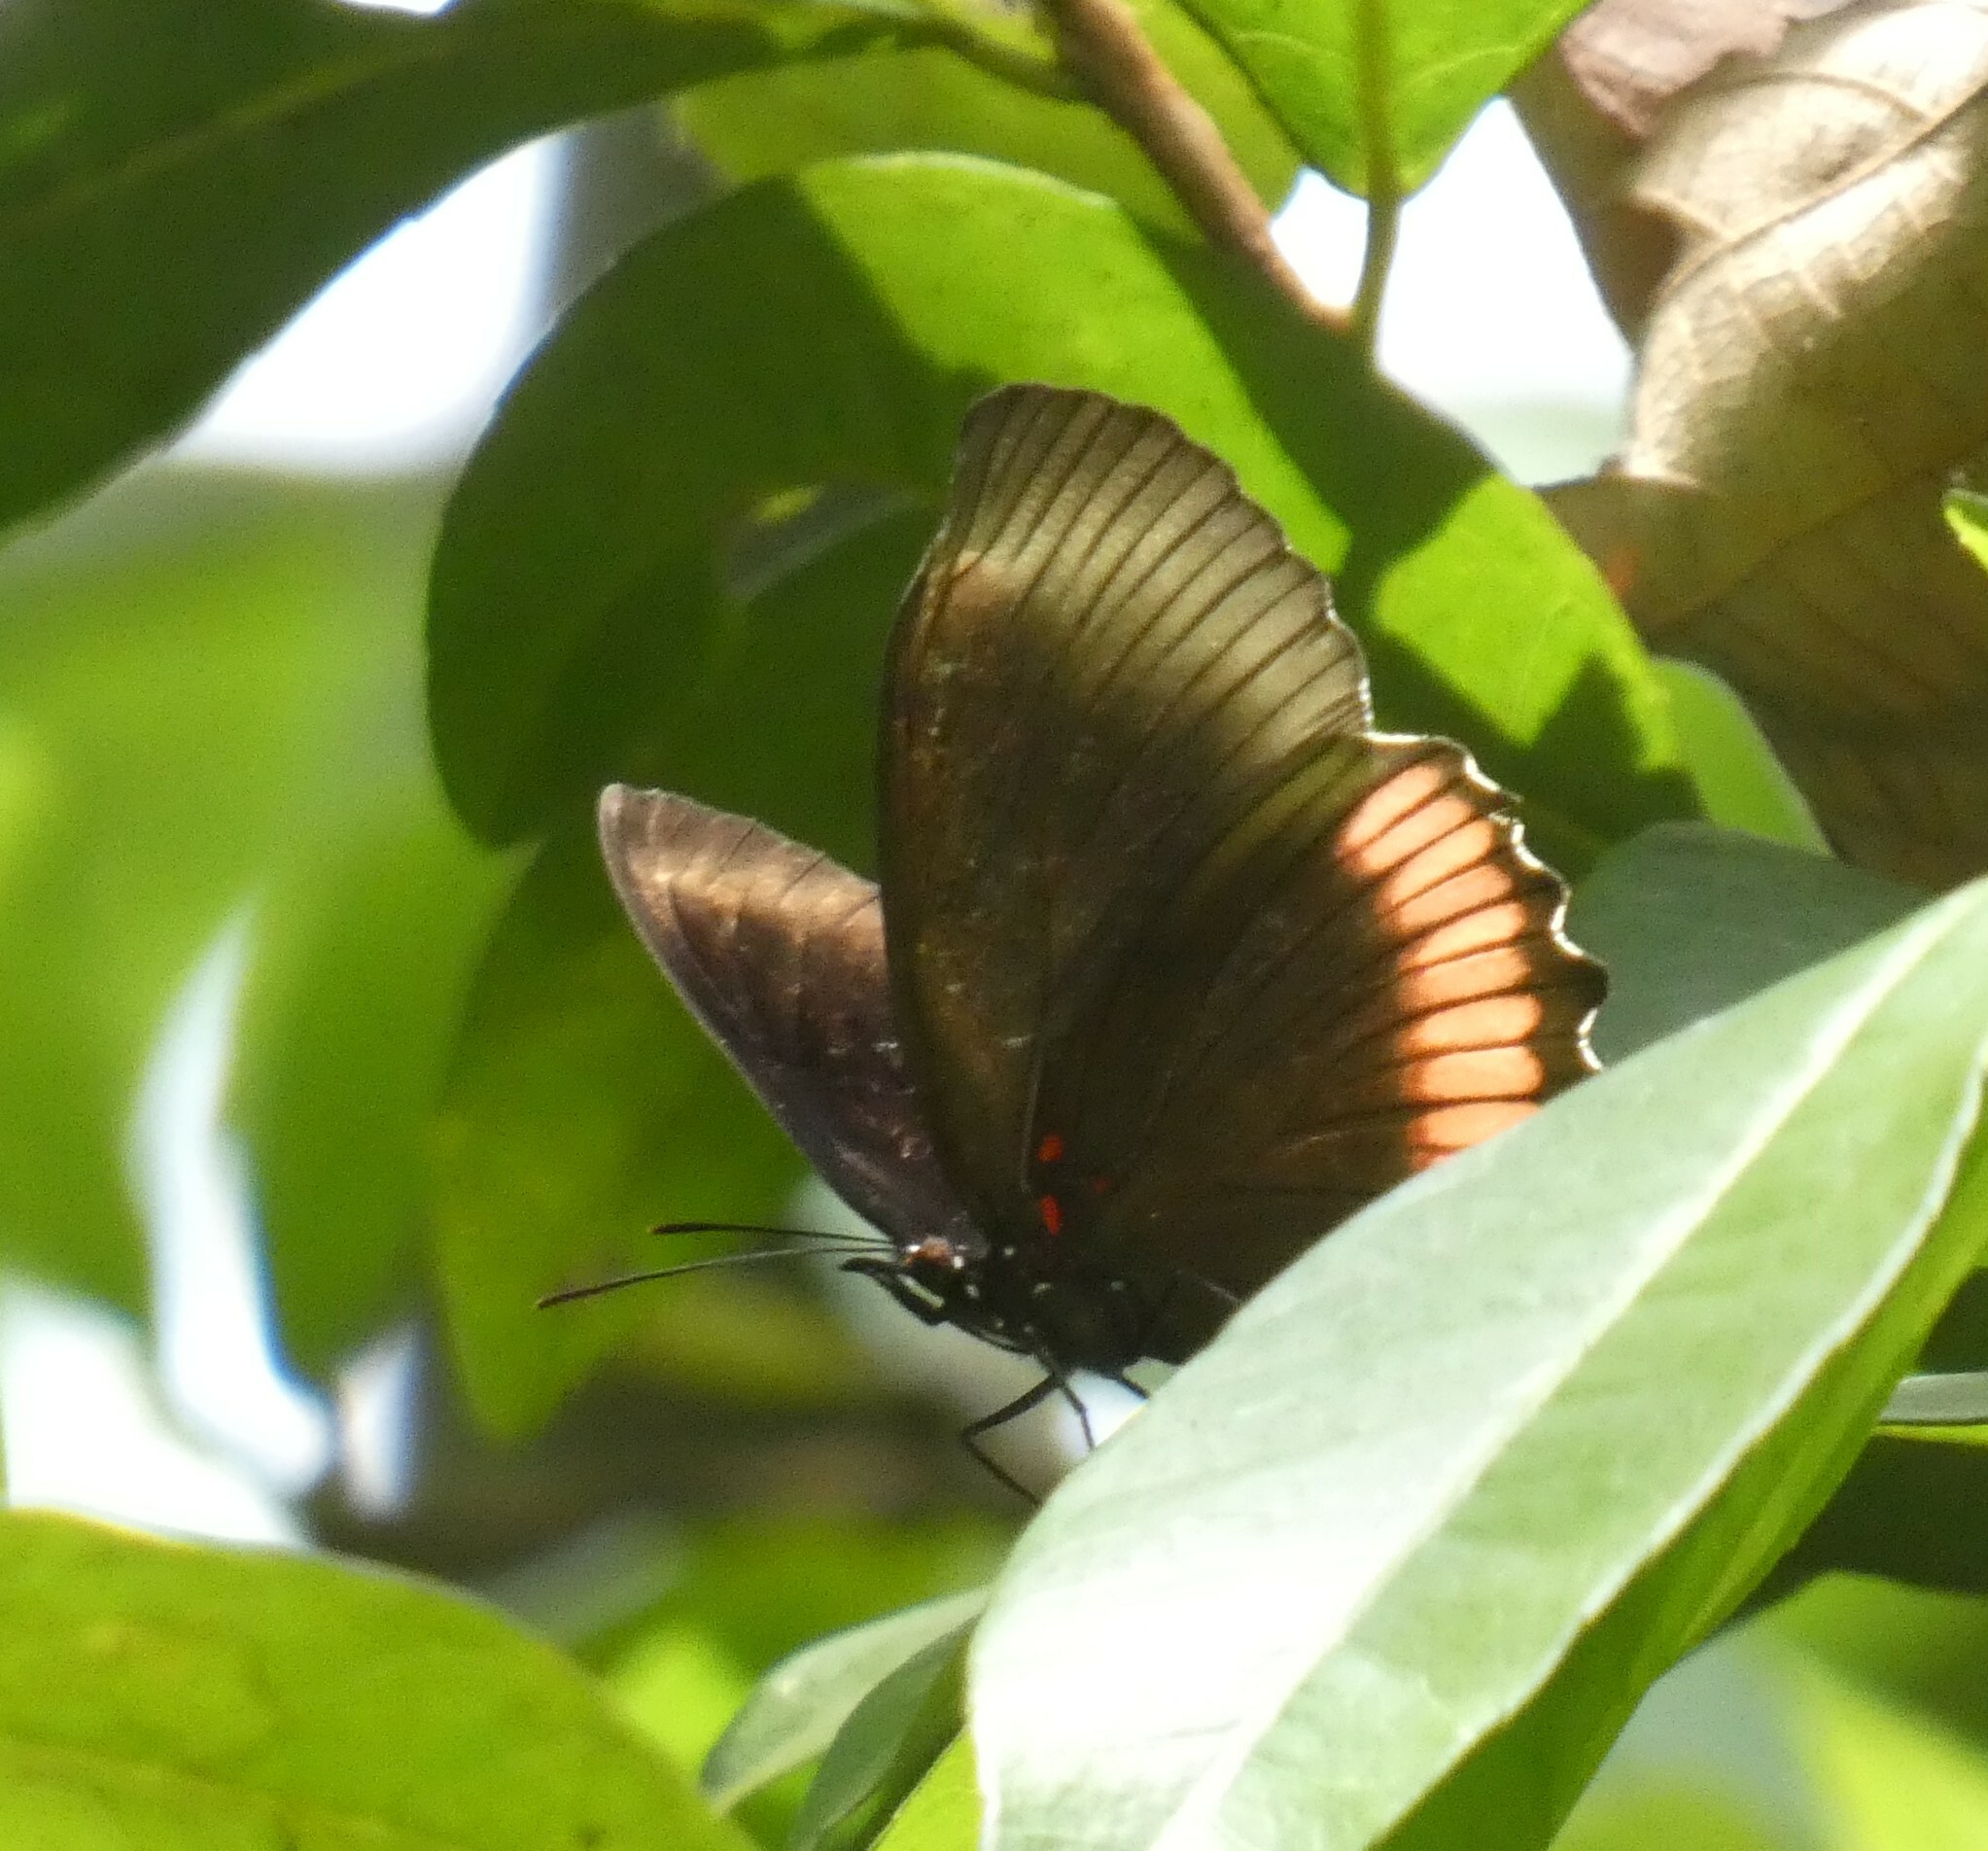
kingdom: Animalia
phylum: Arthropoda
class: Insecta
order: Lepidoptera
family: Sesiidae
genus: Sesia
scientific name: Sesia Biblis hyperia
